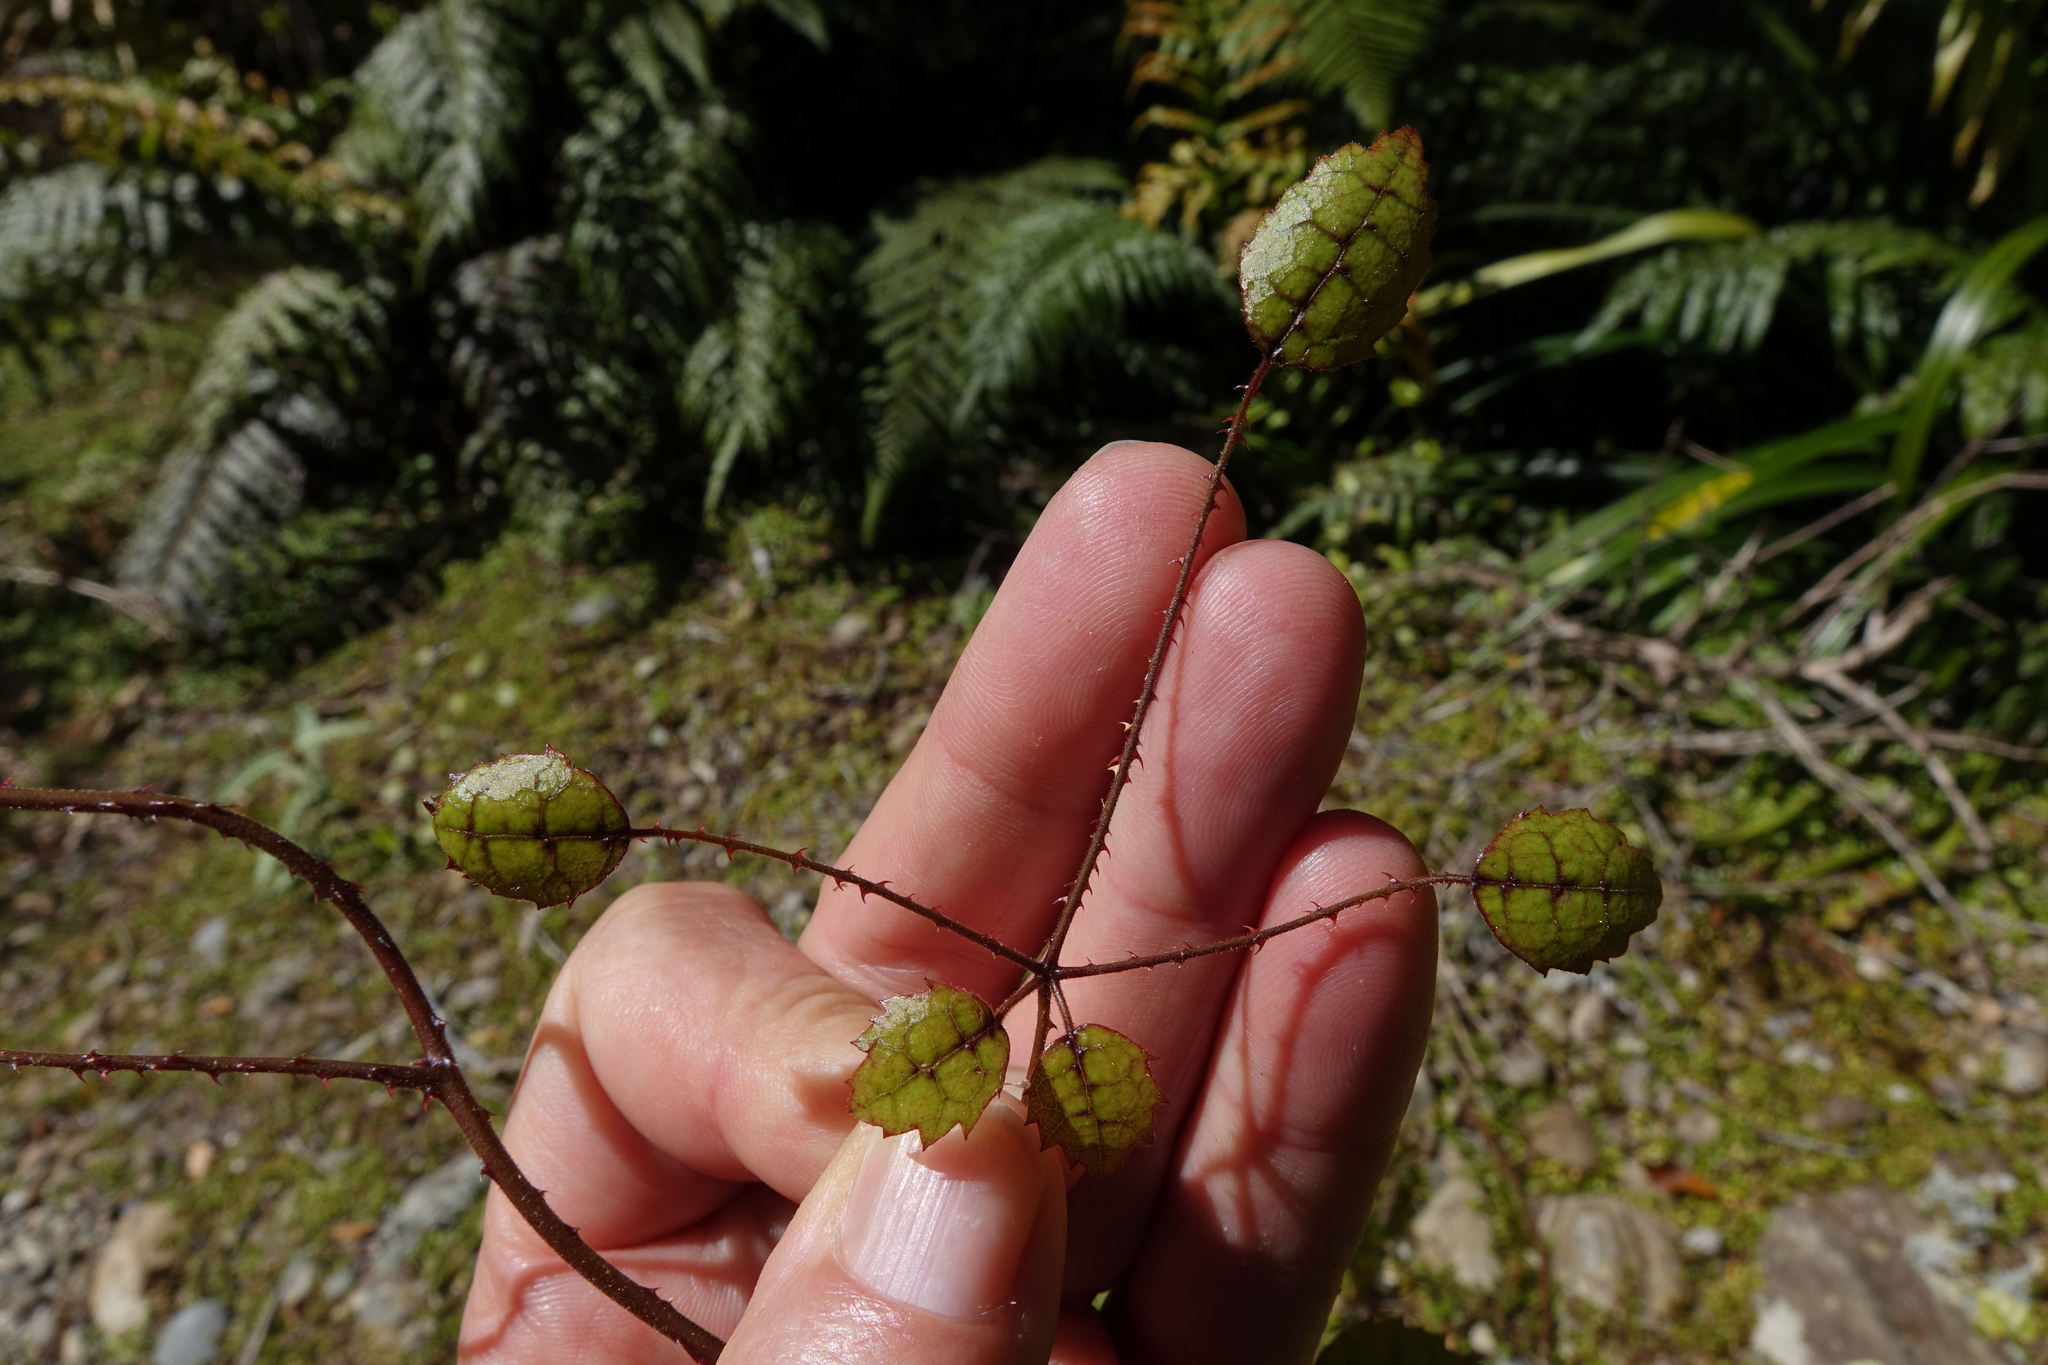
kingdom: Plantae
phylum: Tracheophyta
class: Magnoliopsida
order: Rosales
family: Rosaceae
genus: Rubus
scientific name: Rubus australis
